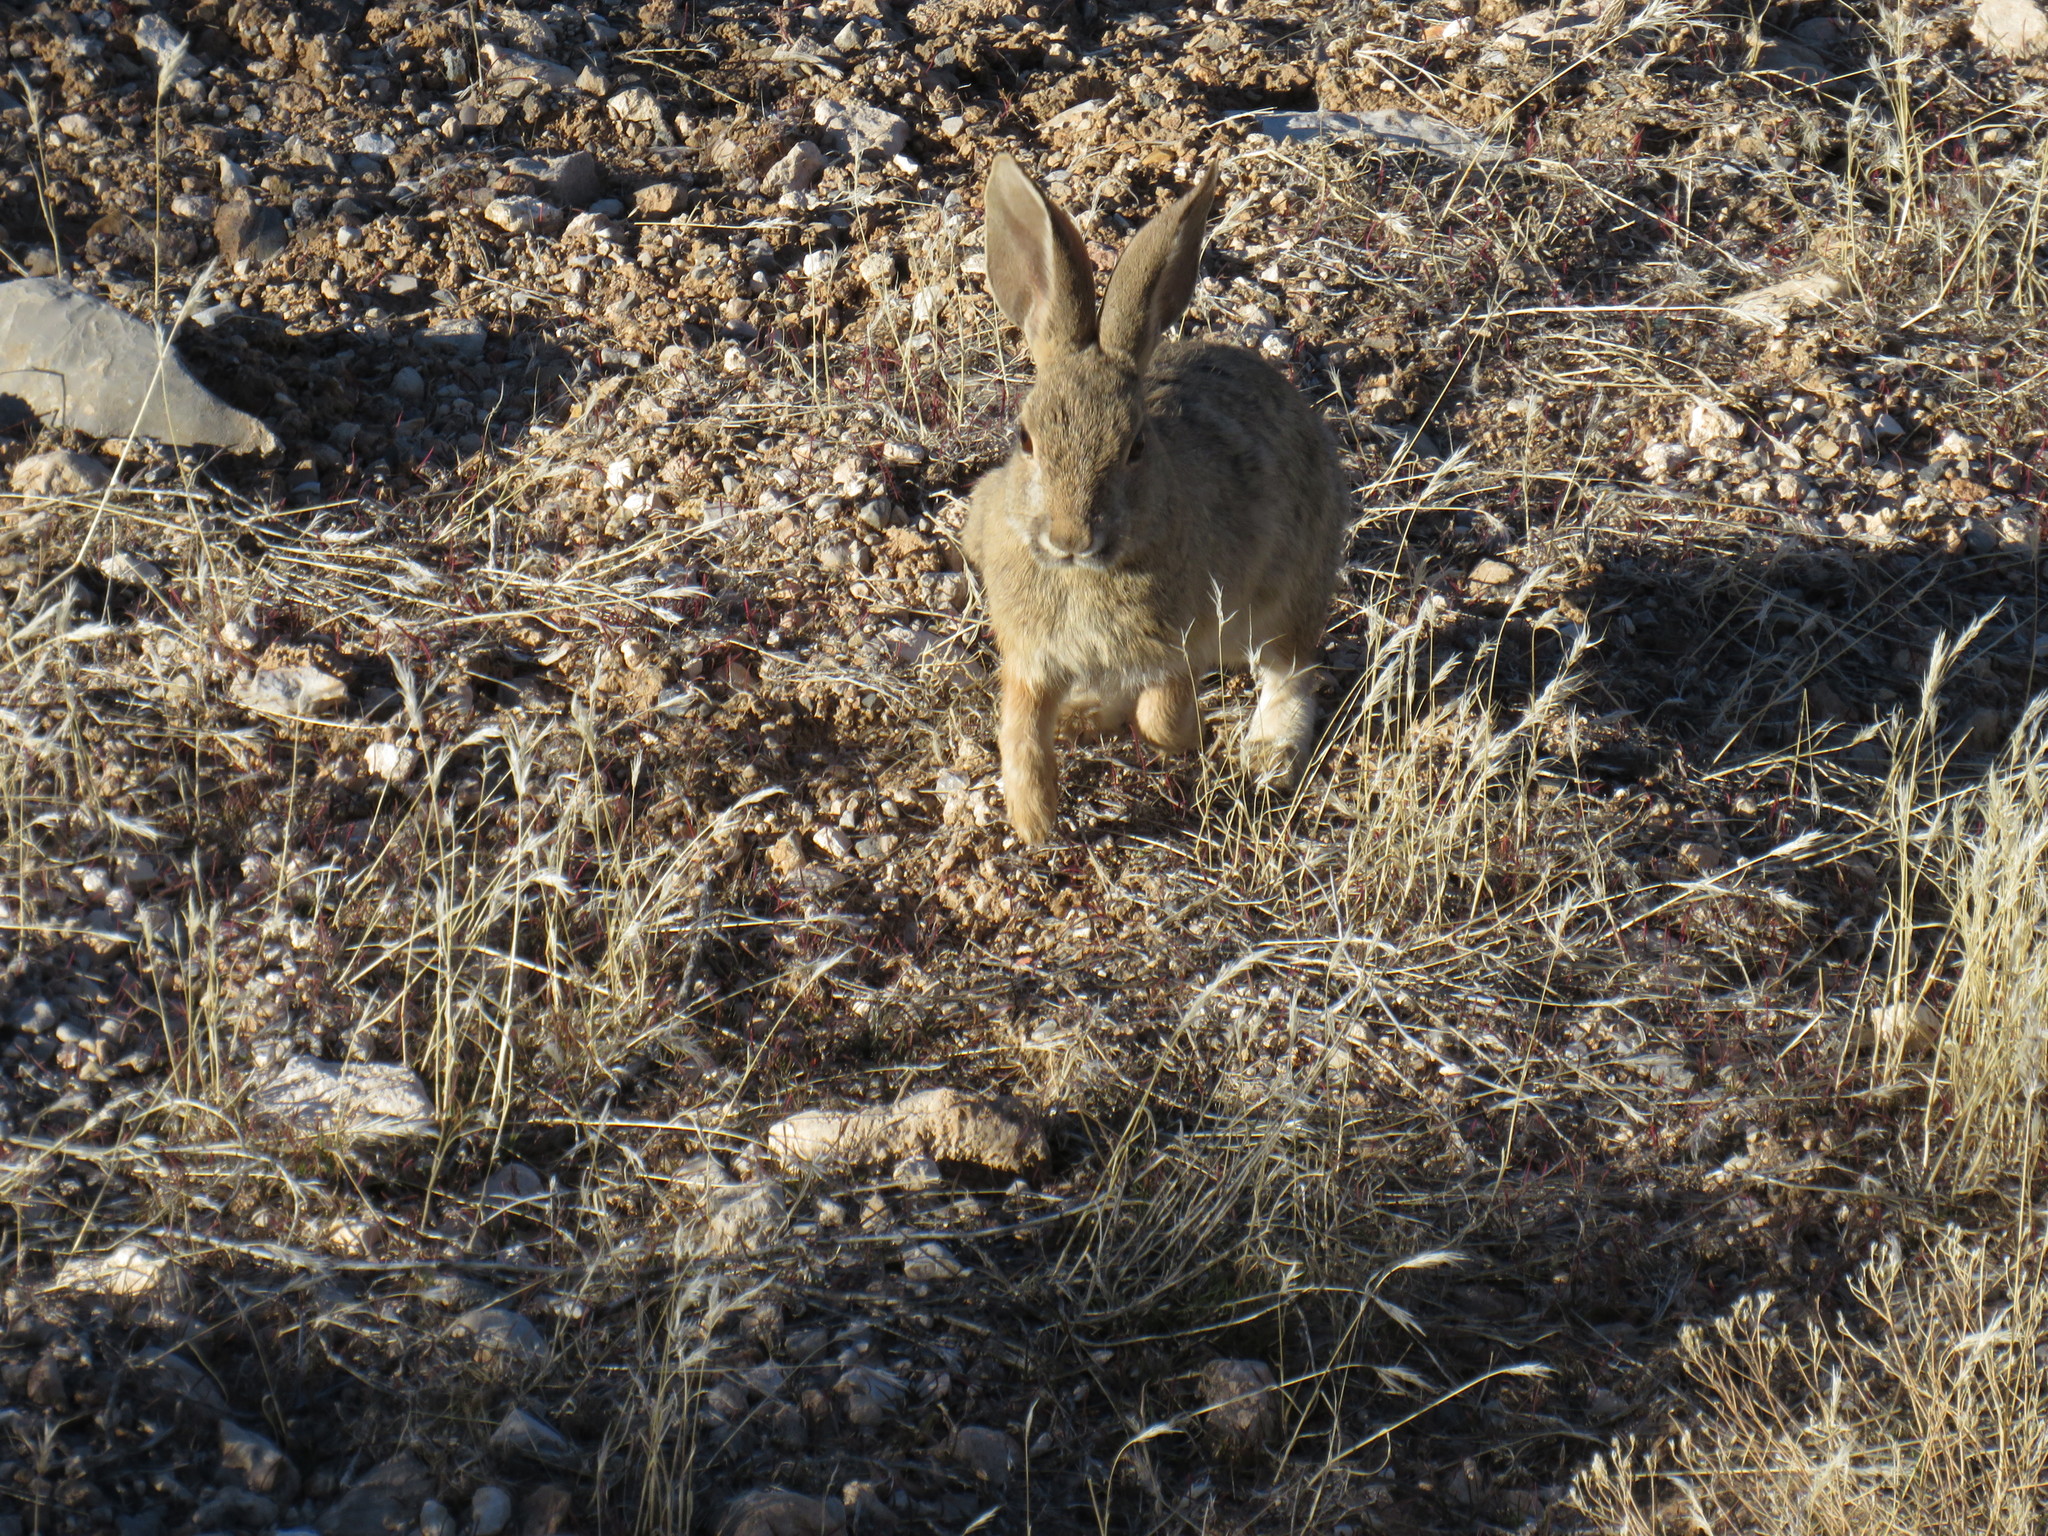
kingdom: Animalia
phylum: Chordata
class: Mammalia
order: Lagomorpha
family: Leporidae
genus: Sylvilagus
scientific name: Sylvilagus audubonii
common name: Desert cottontail
